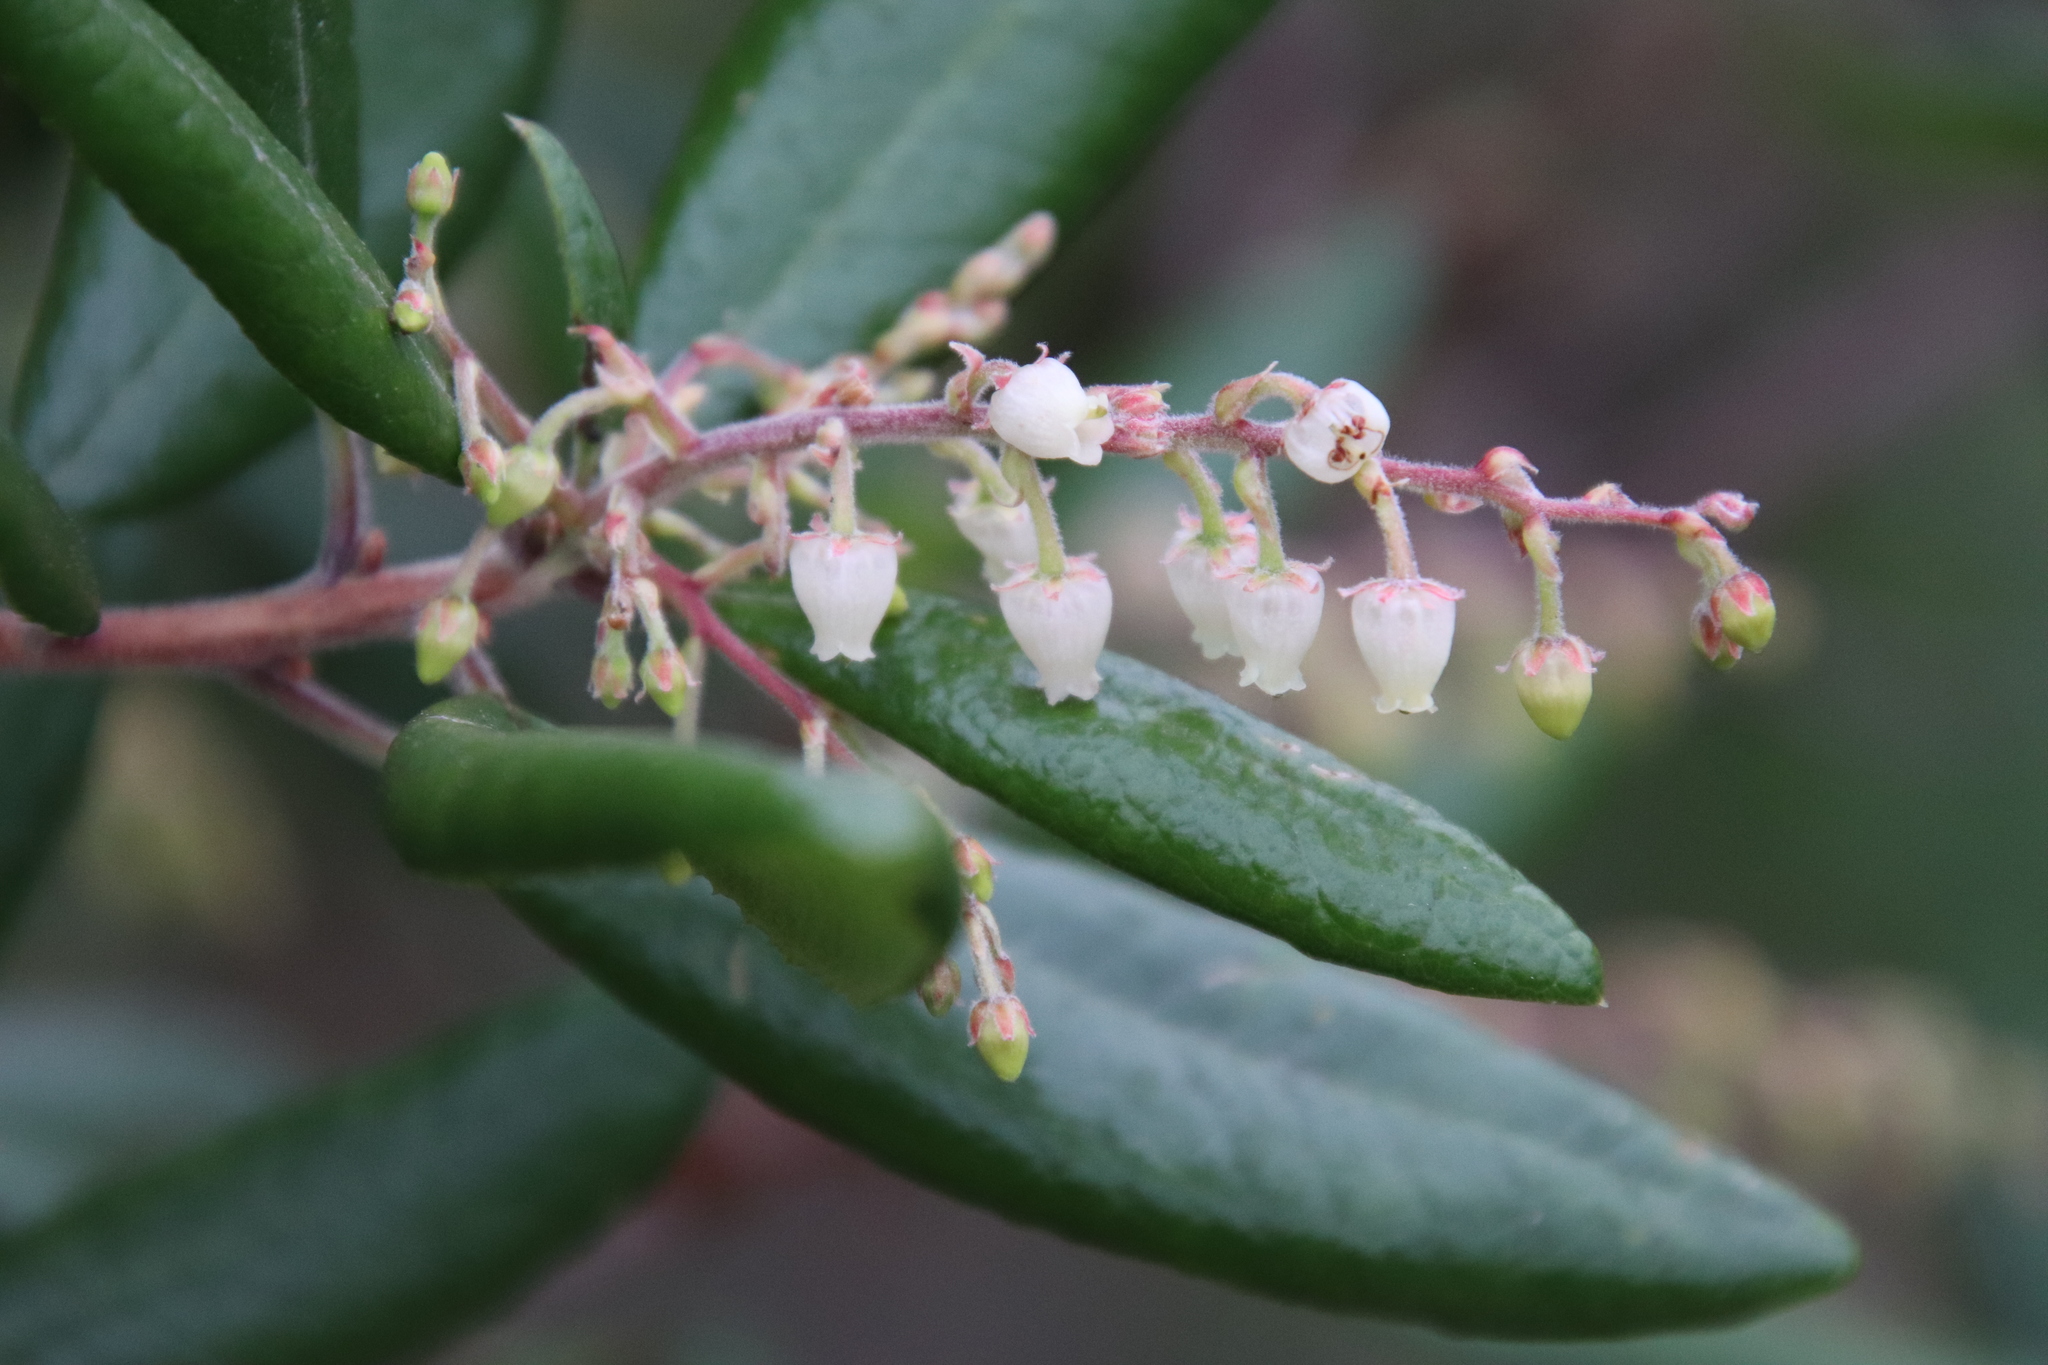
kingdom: Plantae
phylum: Tracheophyta
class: Magnoliopsida
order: Ericales
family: Ericaceae
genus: Comarostaphylis
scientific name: Comarostaphylis diversifolia
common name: Summer-holly
